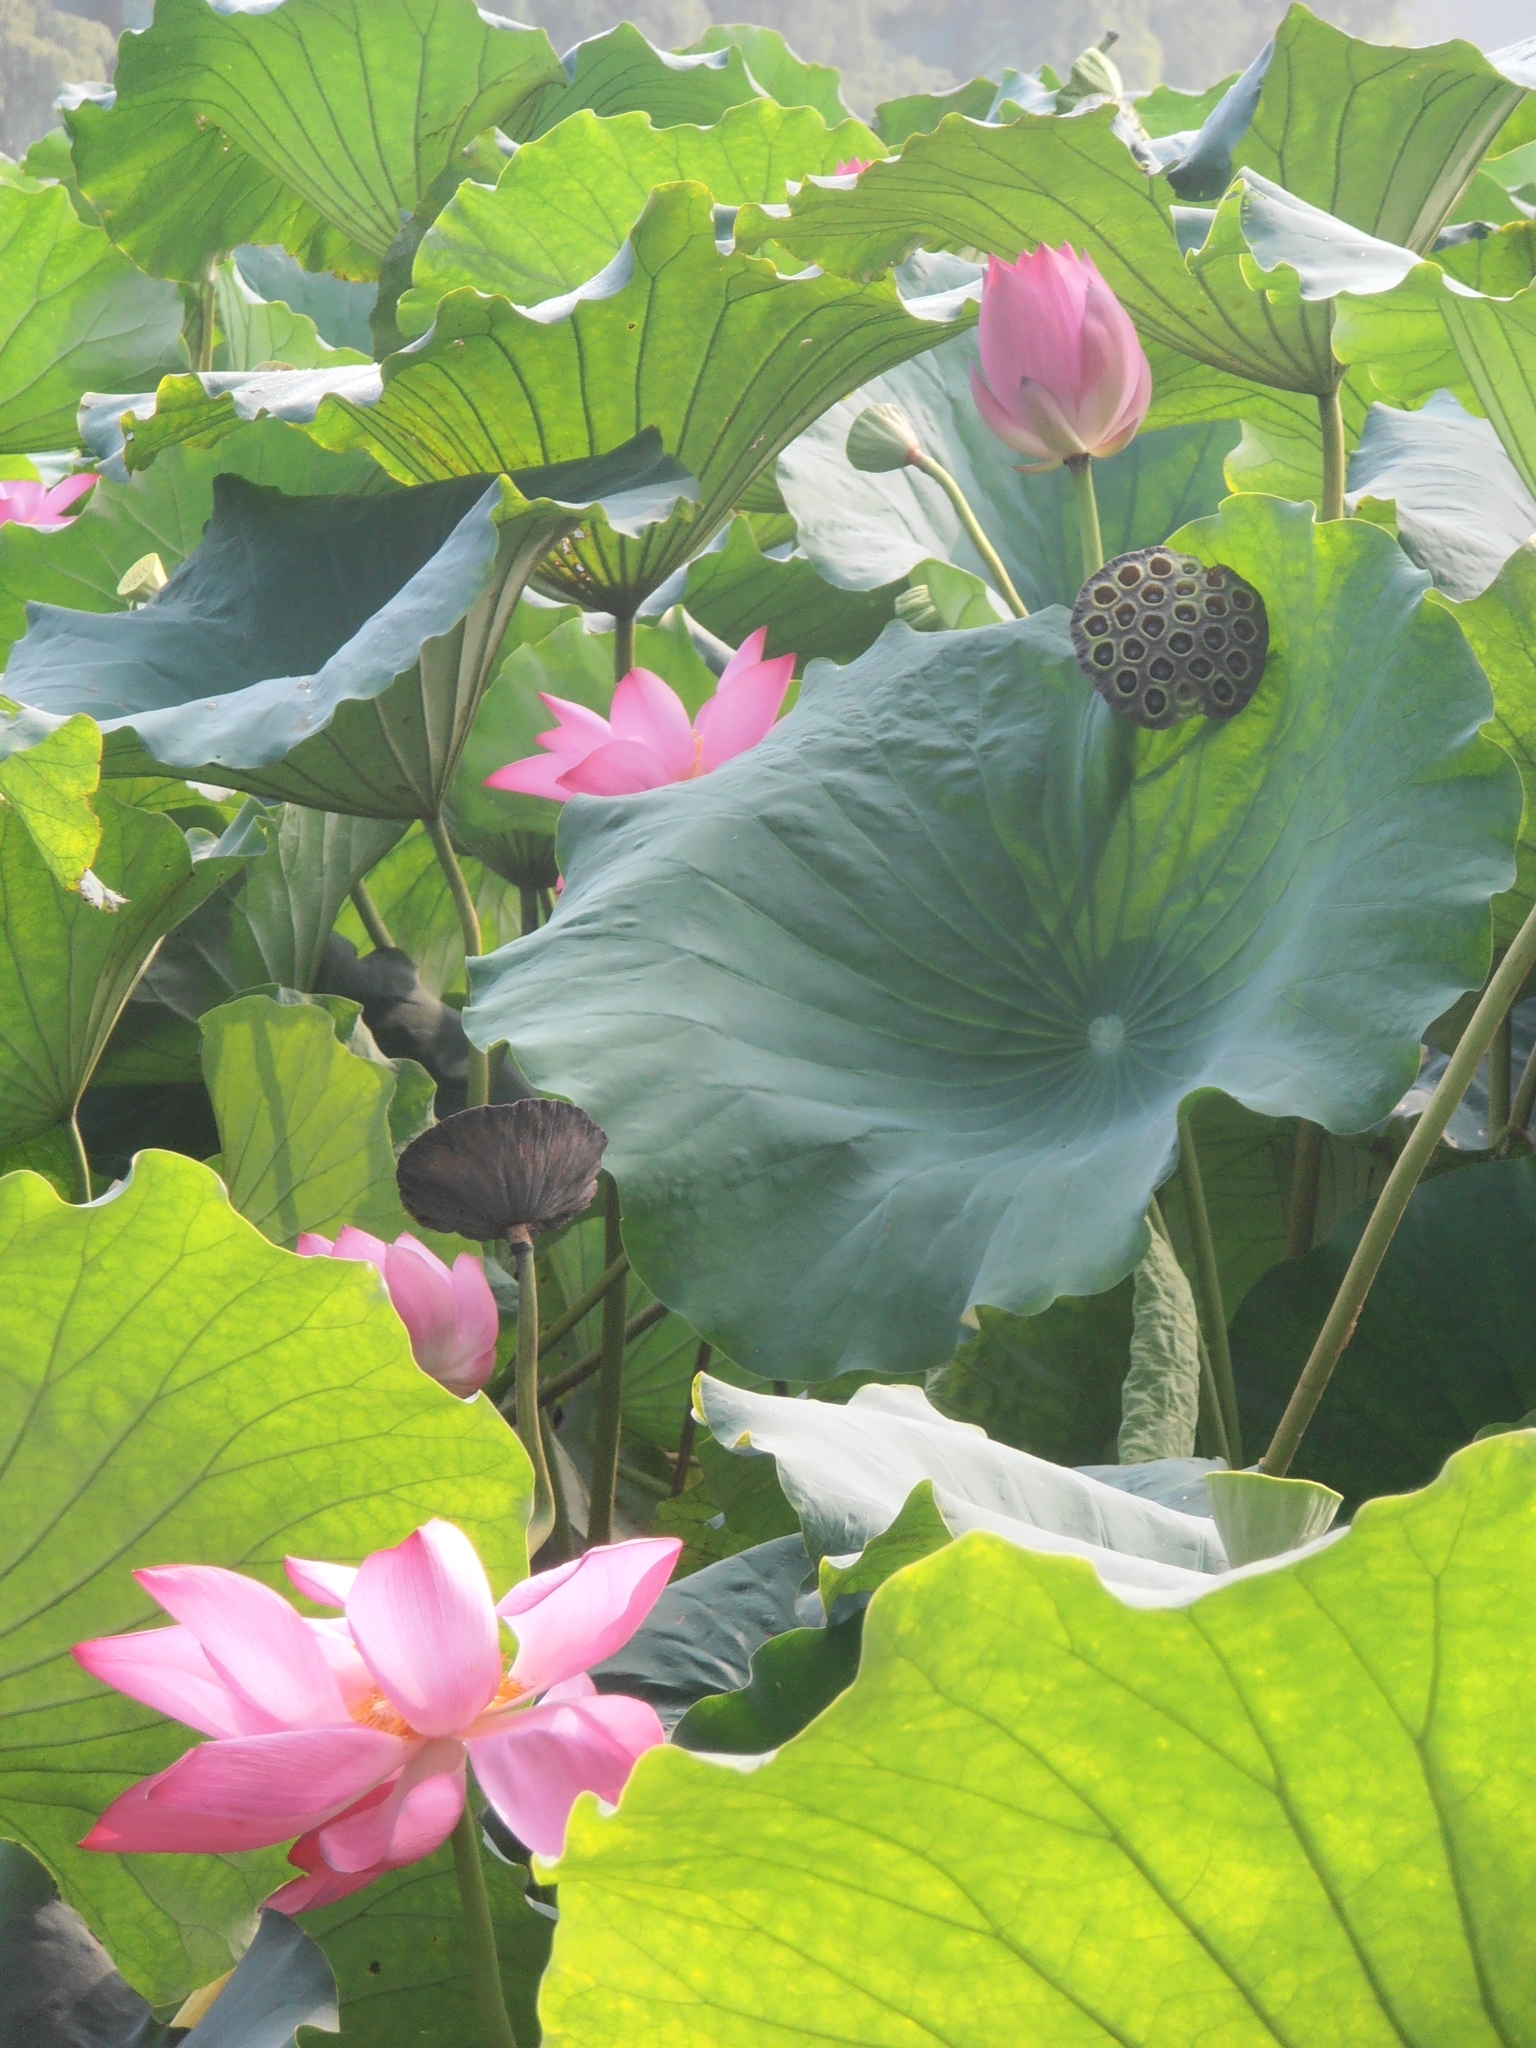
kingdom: Plantae
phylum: Tracheophyta
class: Magnoliopsida
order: Proteales
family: Nelumbonaceae
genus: Nelumbo
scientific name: Nelumbo nucifera
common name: Sacred lotus
